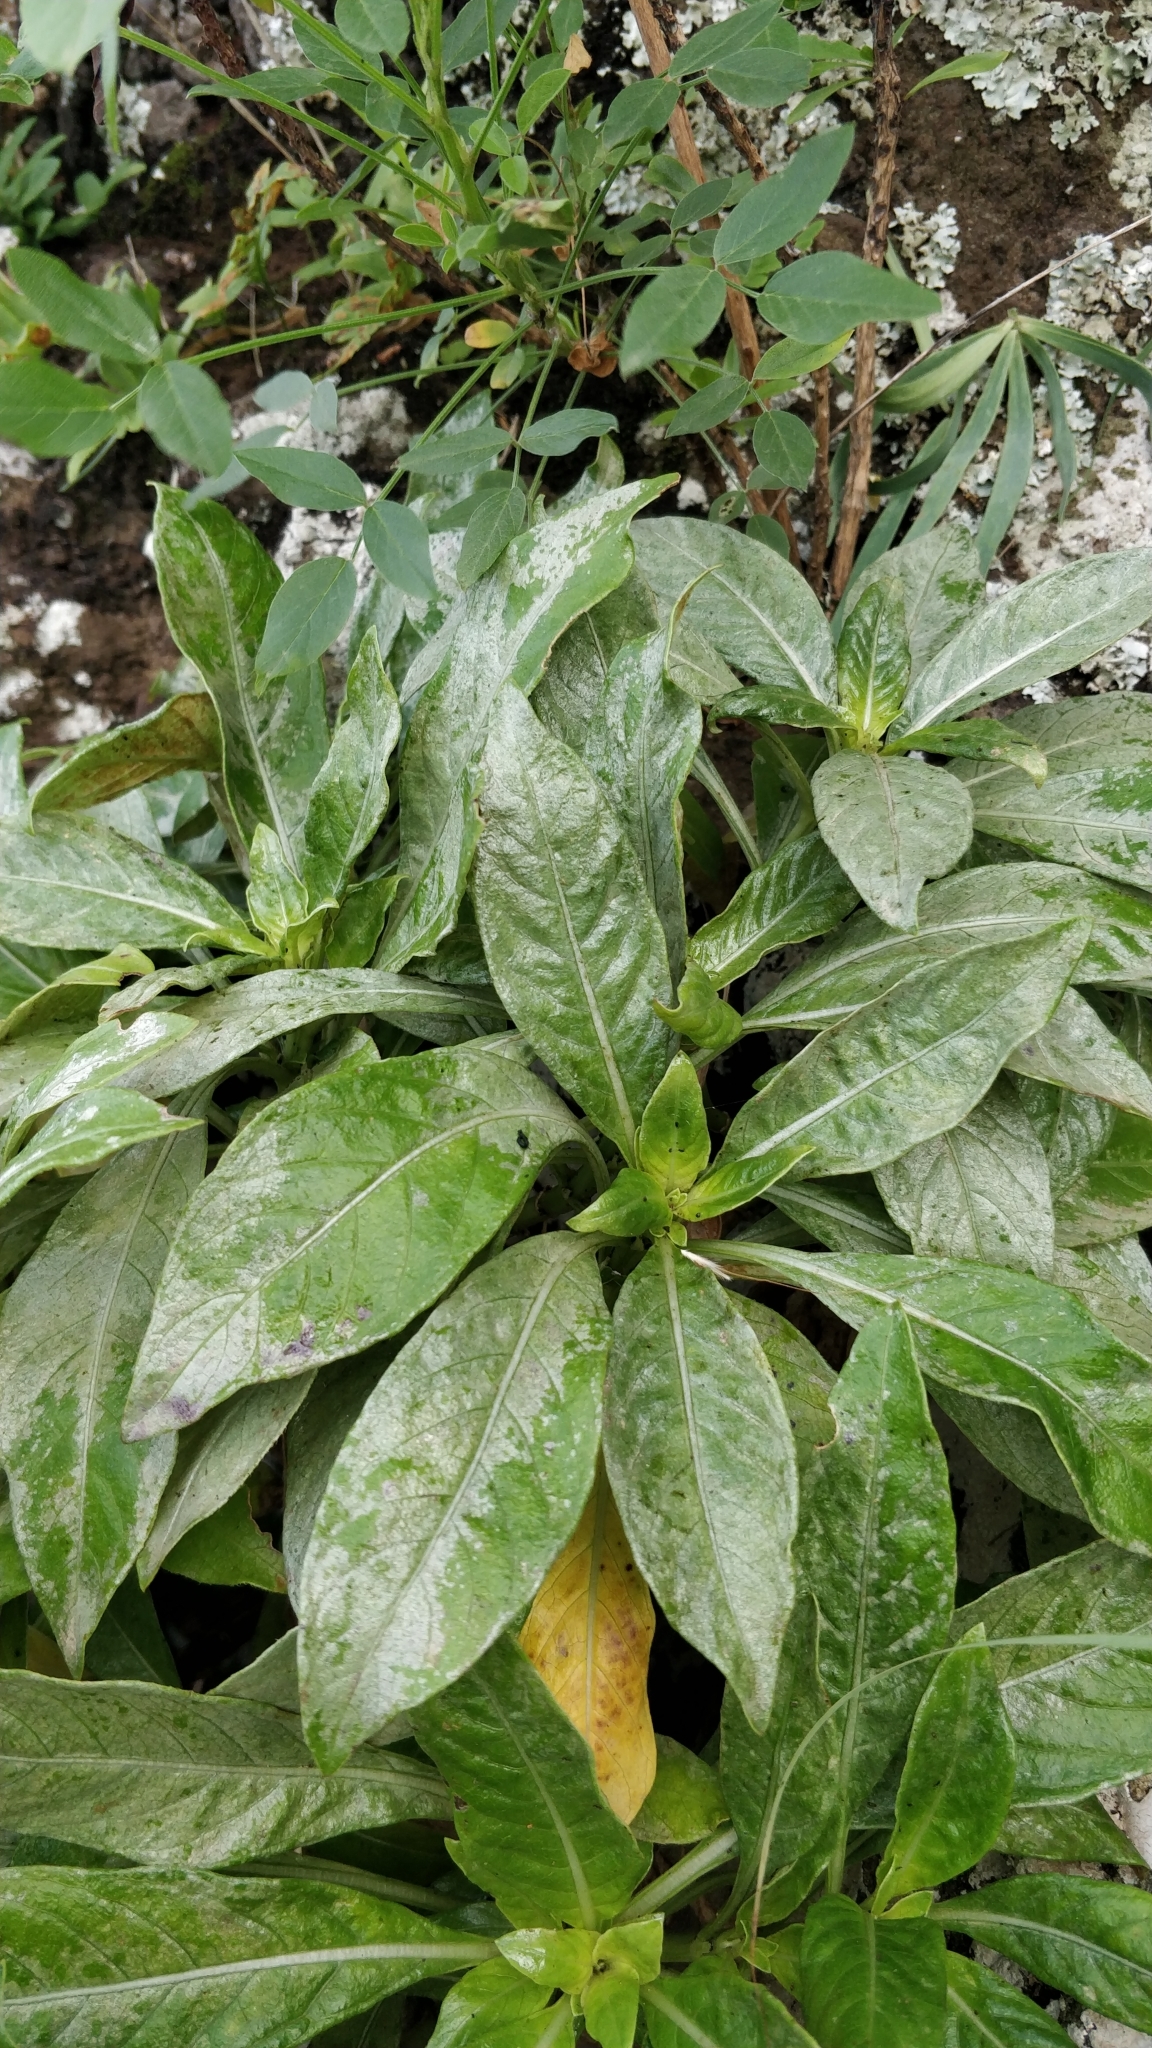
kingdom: Plantae
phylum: Tracheophyta
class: Magnoliopsida
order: Gentianales
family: Rubiaceae
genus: Phyllis
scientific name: Phyllis nobla
